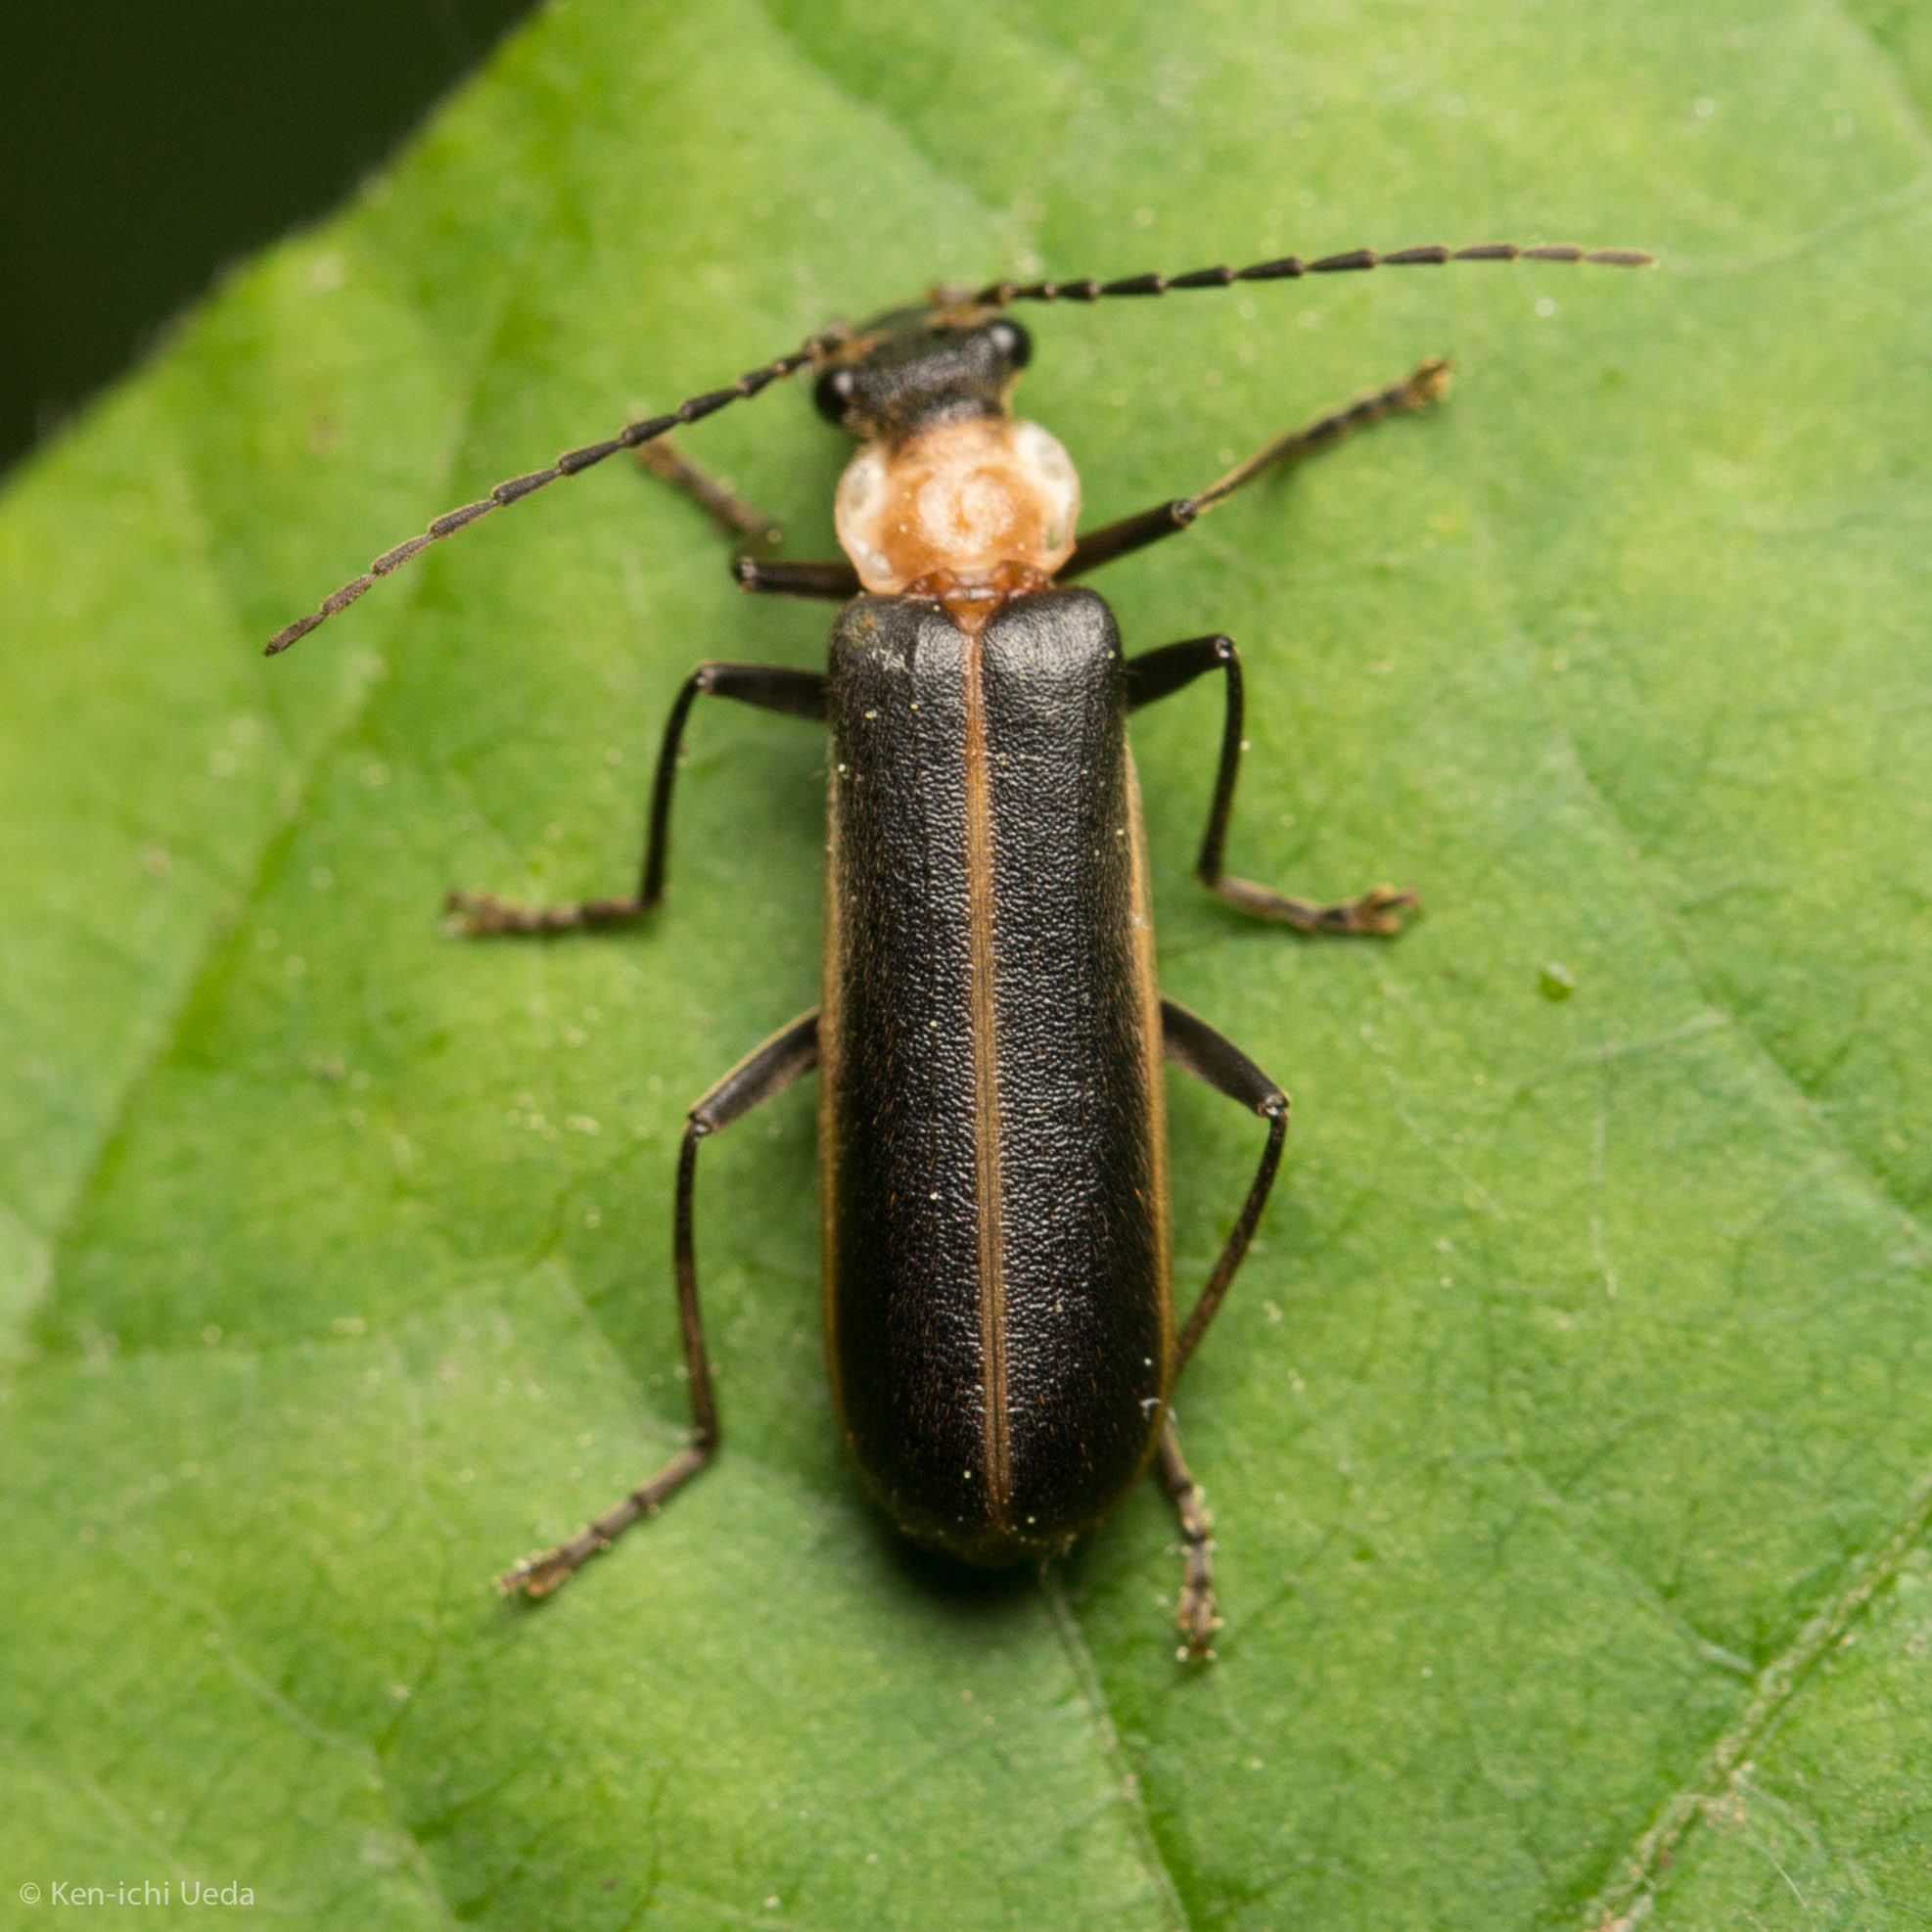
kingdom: Animalia
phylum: Arthropoda
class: Insecta
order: Coleoptera
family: Cantharidae
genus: Podabrus
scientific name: Podabrus flavicollis
